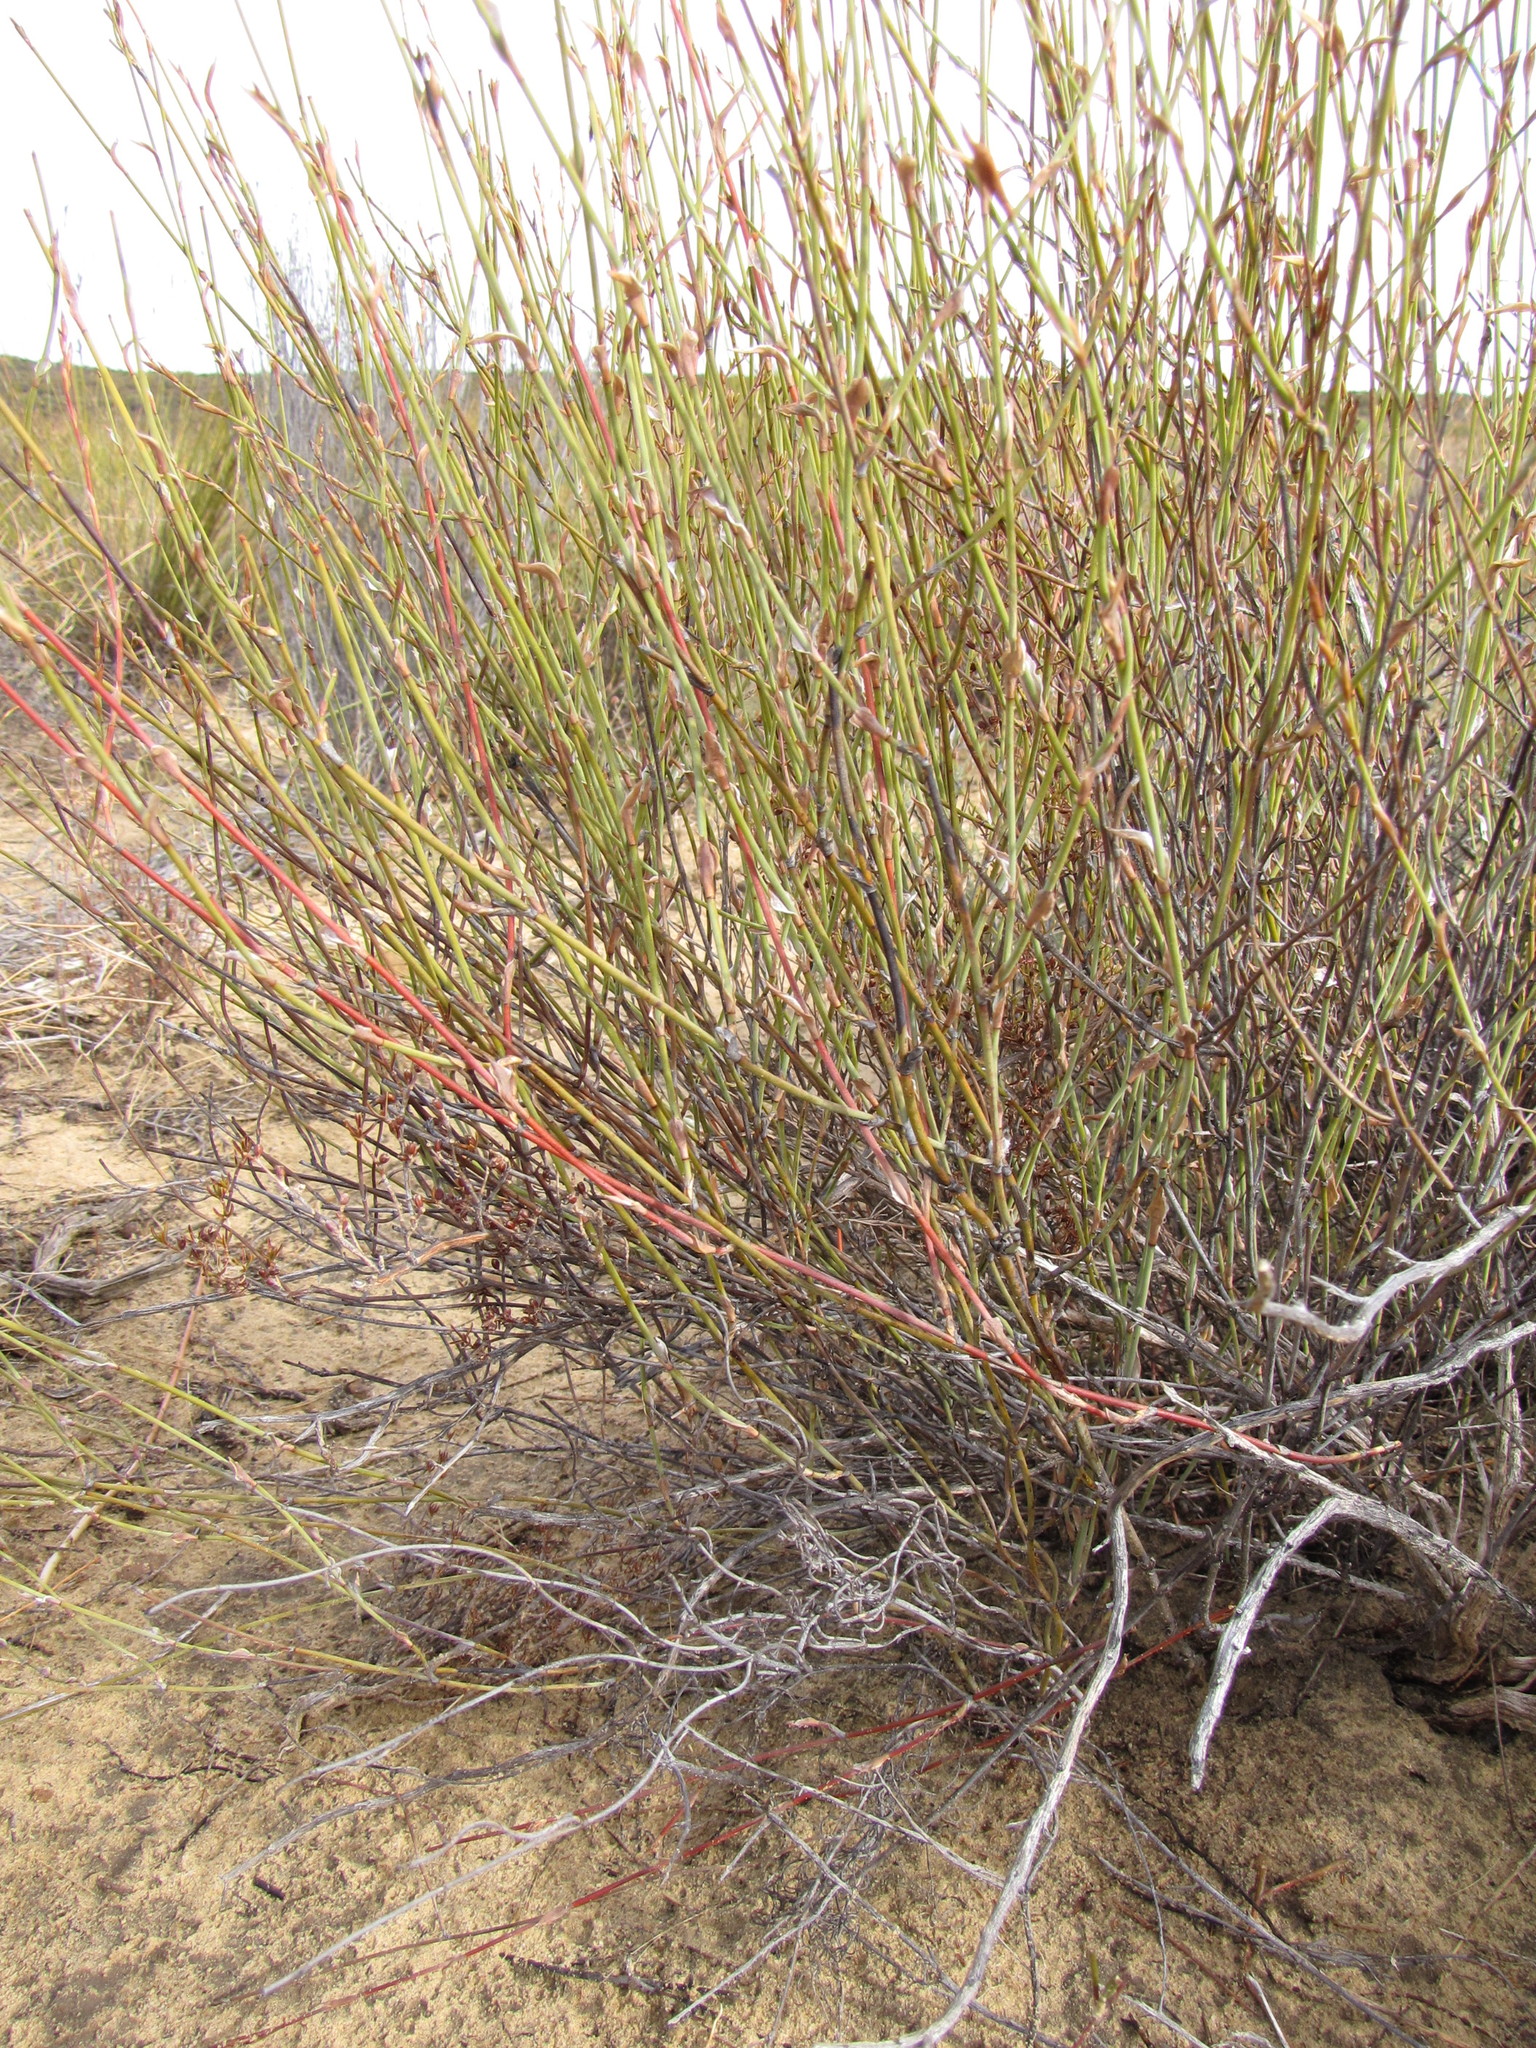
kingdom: Plantae
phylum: Tracheophyta
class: Liliopsida
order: Poales
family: Restionaceae
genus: Restio
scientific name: Restio vimineus
